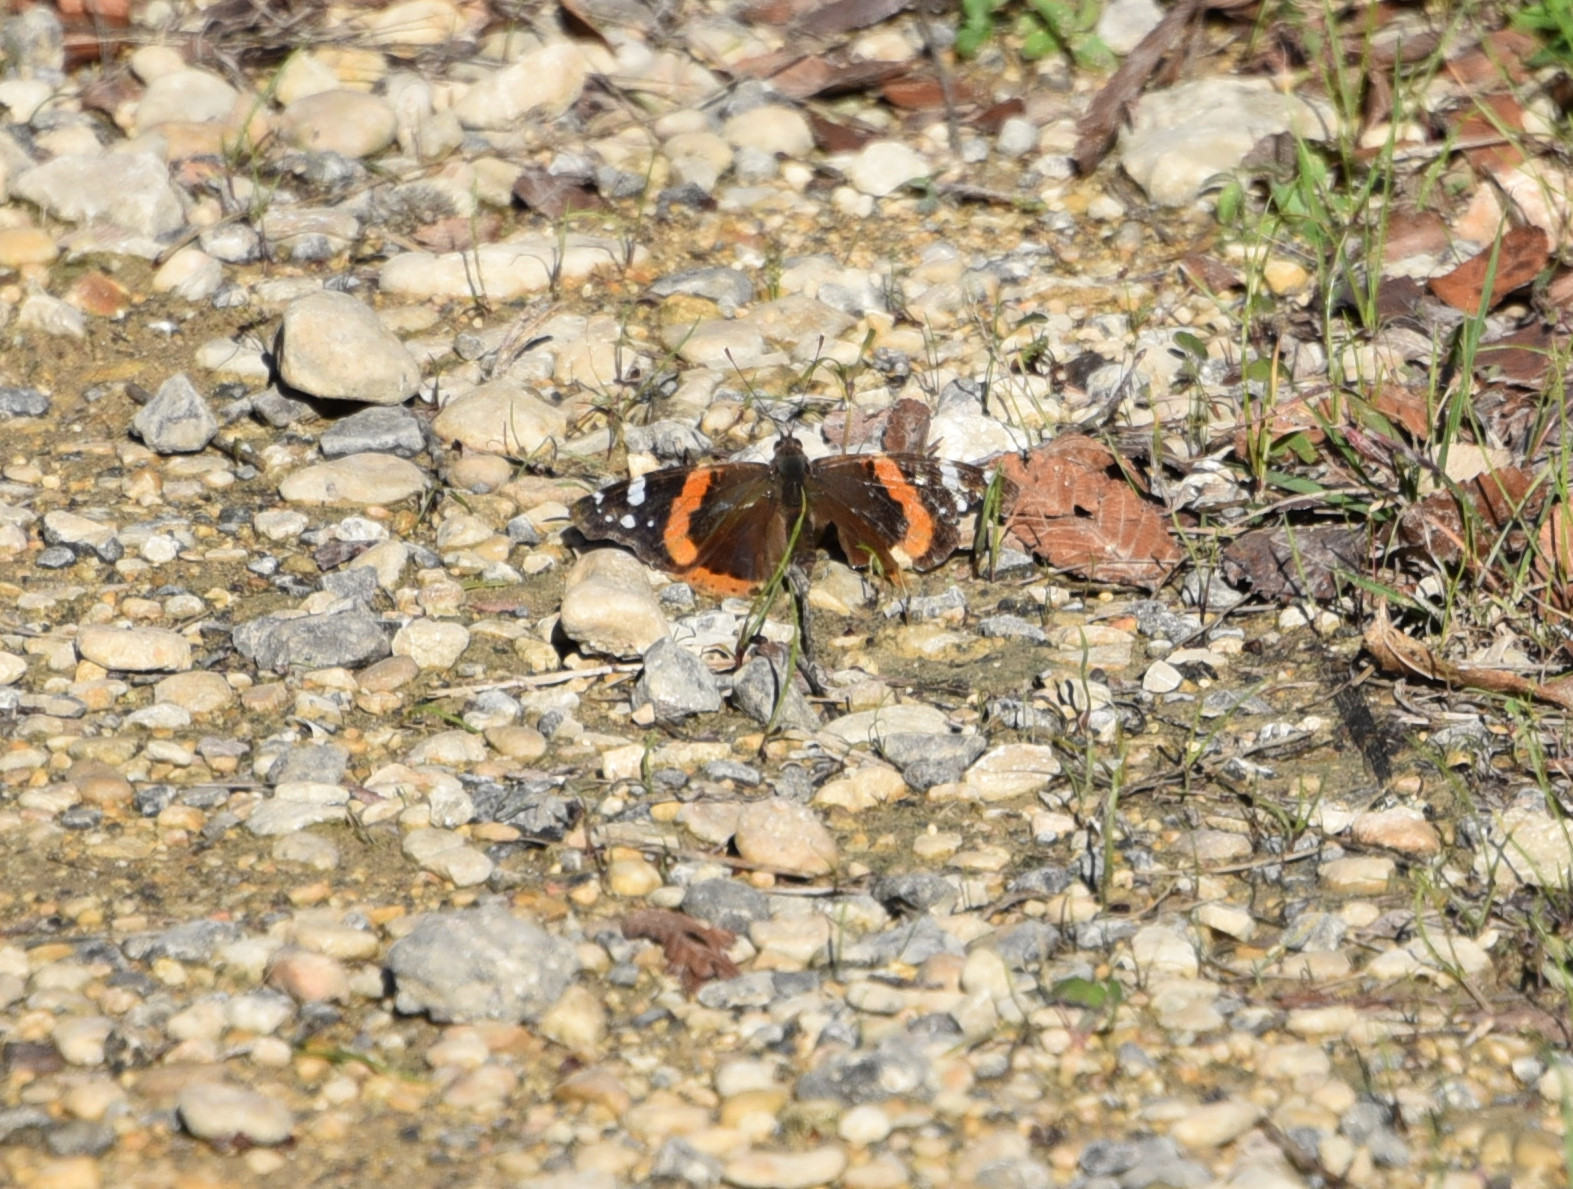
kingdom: Animalia
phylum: Arthropoda
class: Insecta
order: Lepidoptera
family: Nymphalidae
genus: Vanessa
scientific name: Vanessa atalanta
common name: Red admiral
